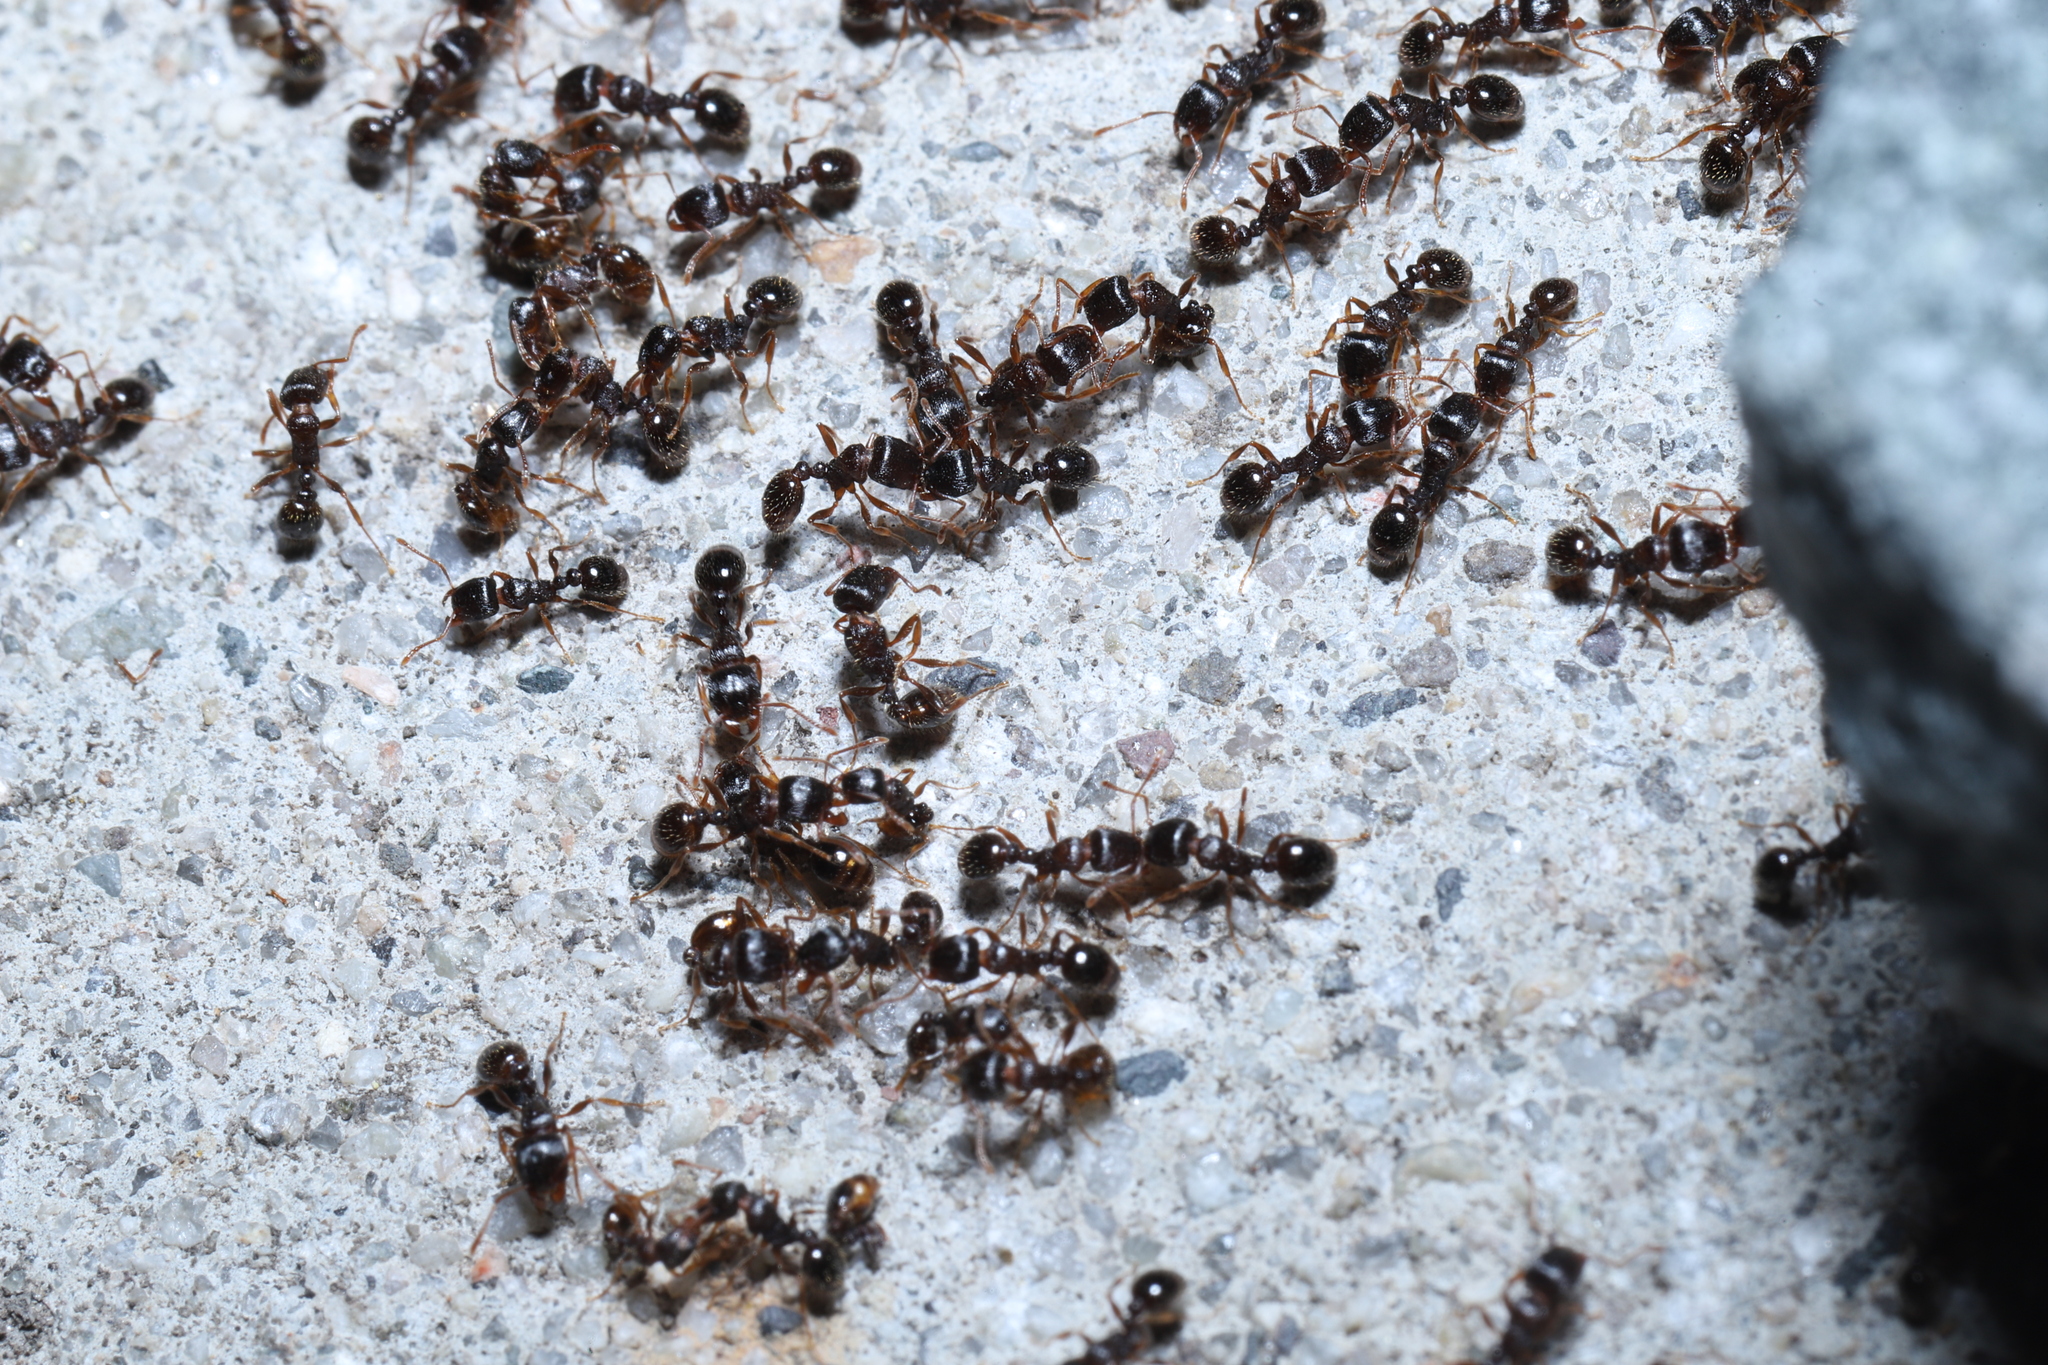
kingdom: Animalia
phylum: Arthropoda
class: Insecta
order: Hymenoptera
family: Formicidae
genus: Tetramorium
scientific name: Tetramorium immigrans
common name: Pavement ant
